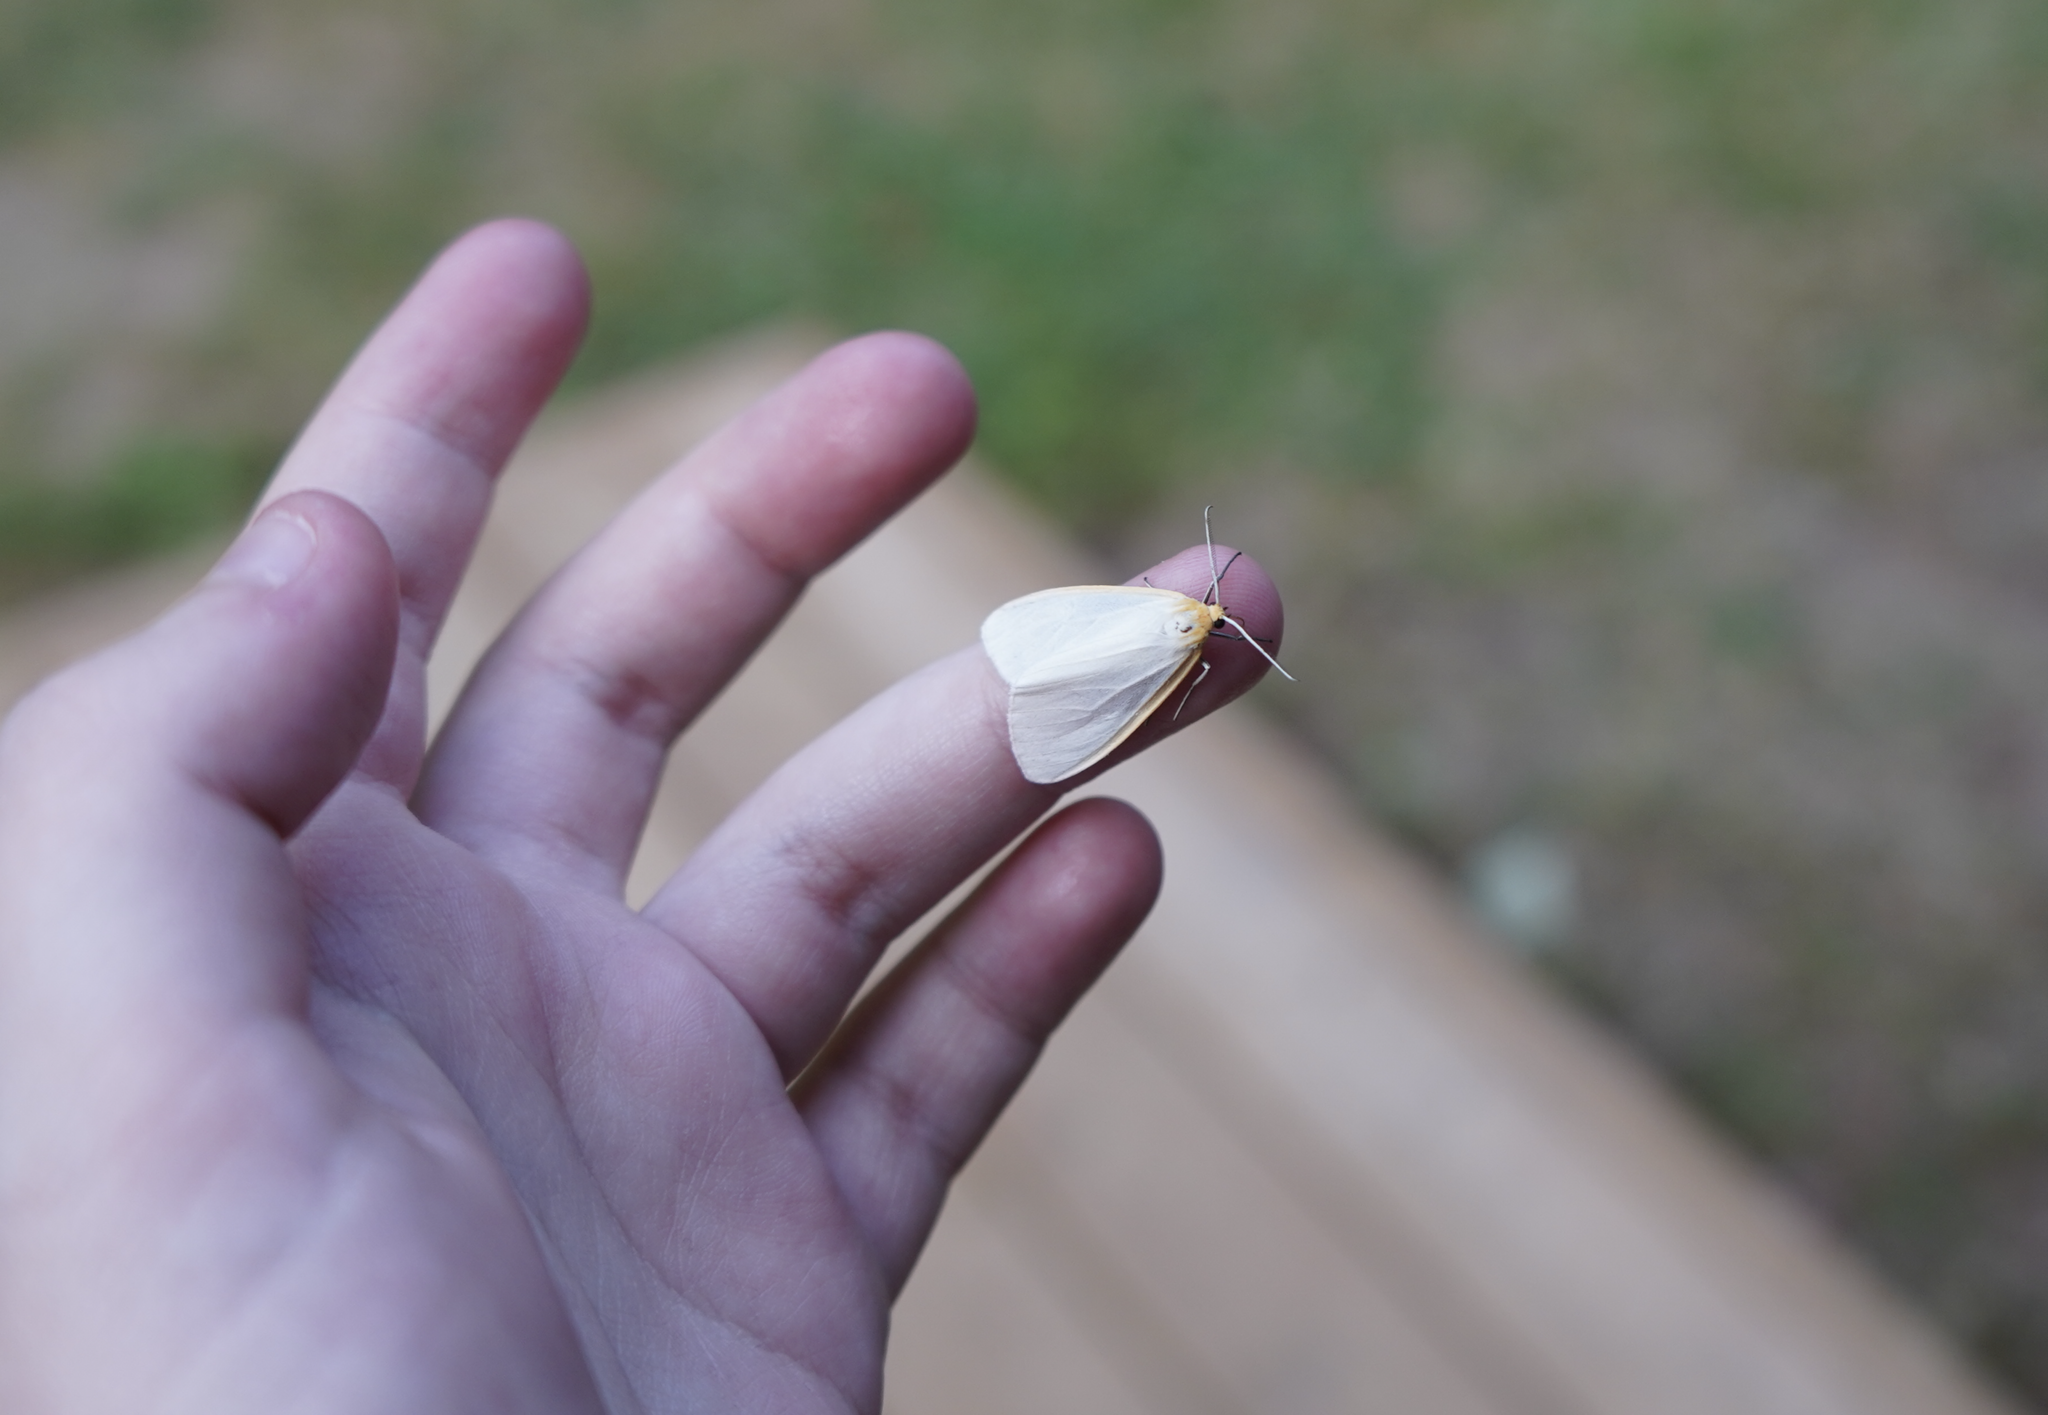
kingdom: Animalia
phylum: Arthropoda
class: Insecta
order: Lepidoptera
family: Erebidae
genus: Cycnia
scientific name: Cycnia tenera
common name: Delicate cycnia moth
